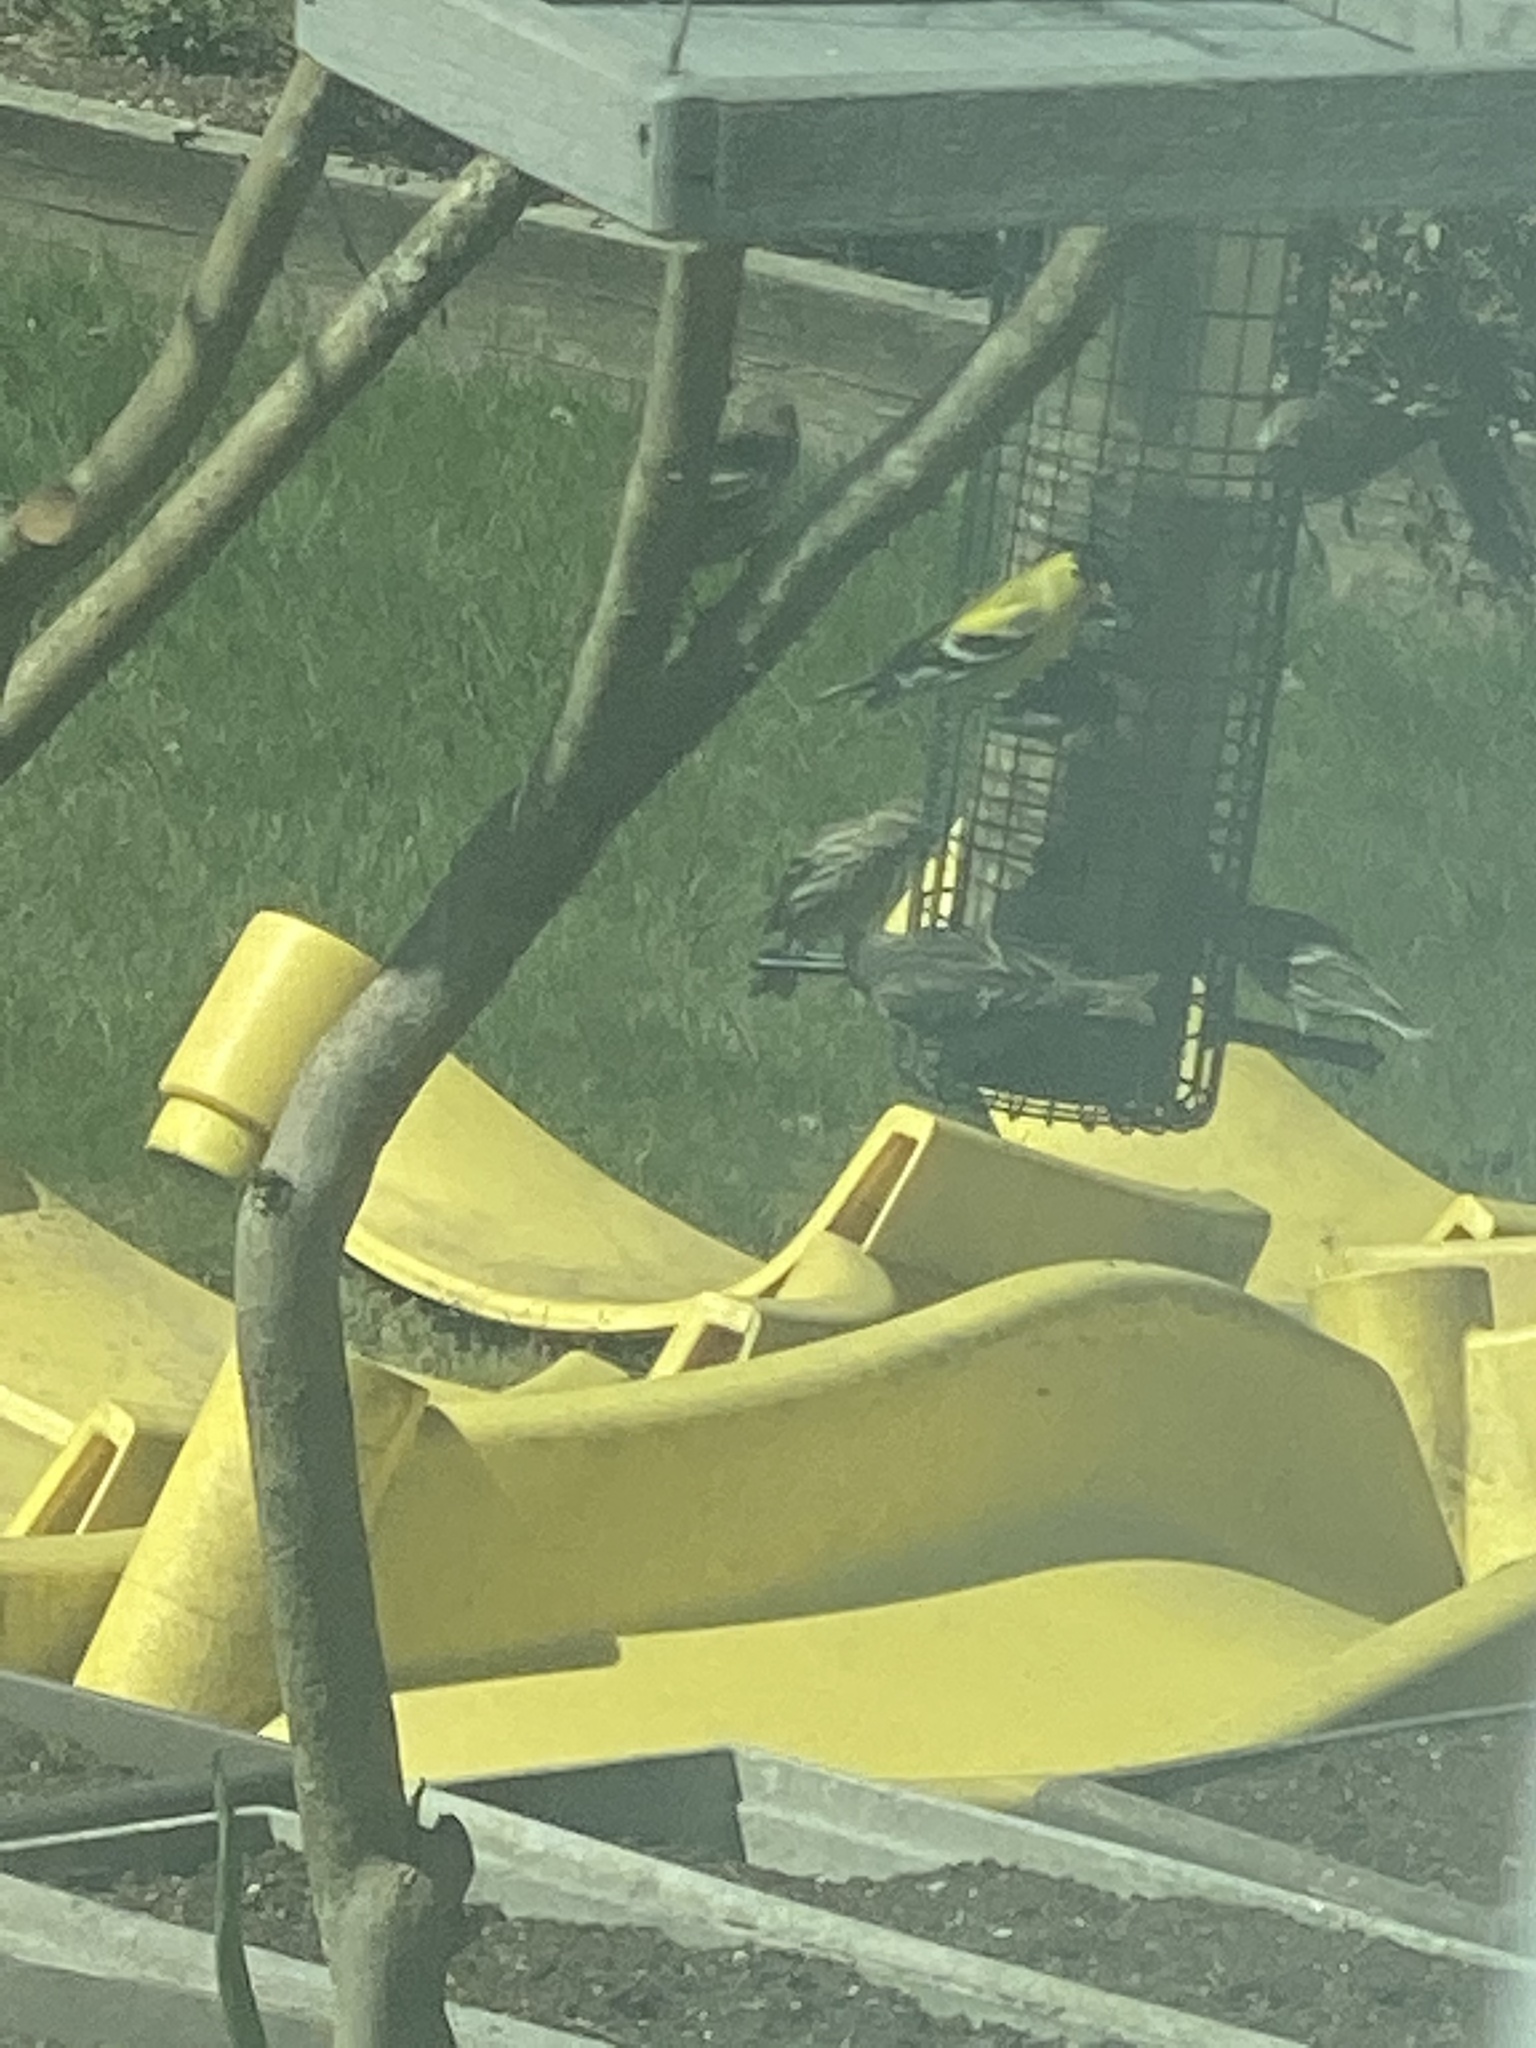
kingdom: Animalia
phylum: Chordata
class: Aves
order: Passeriformes
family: Fringillidae
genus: Spinus
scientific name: Spinus tristis
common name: American goldfinch
